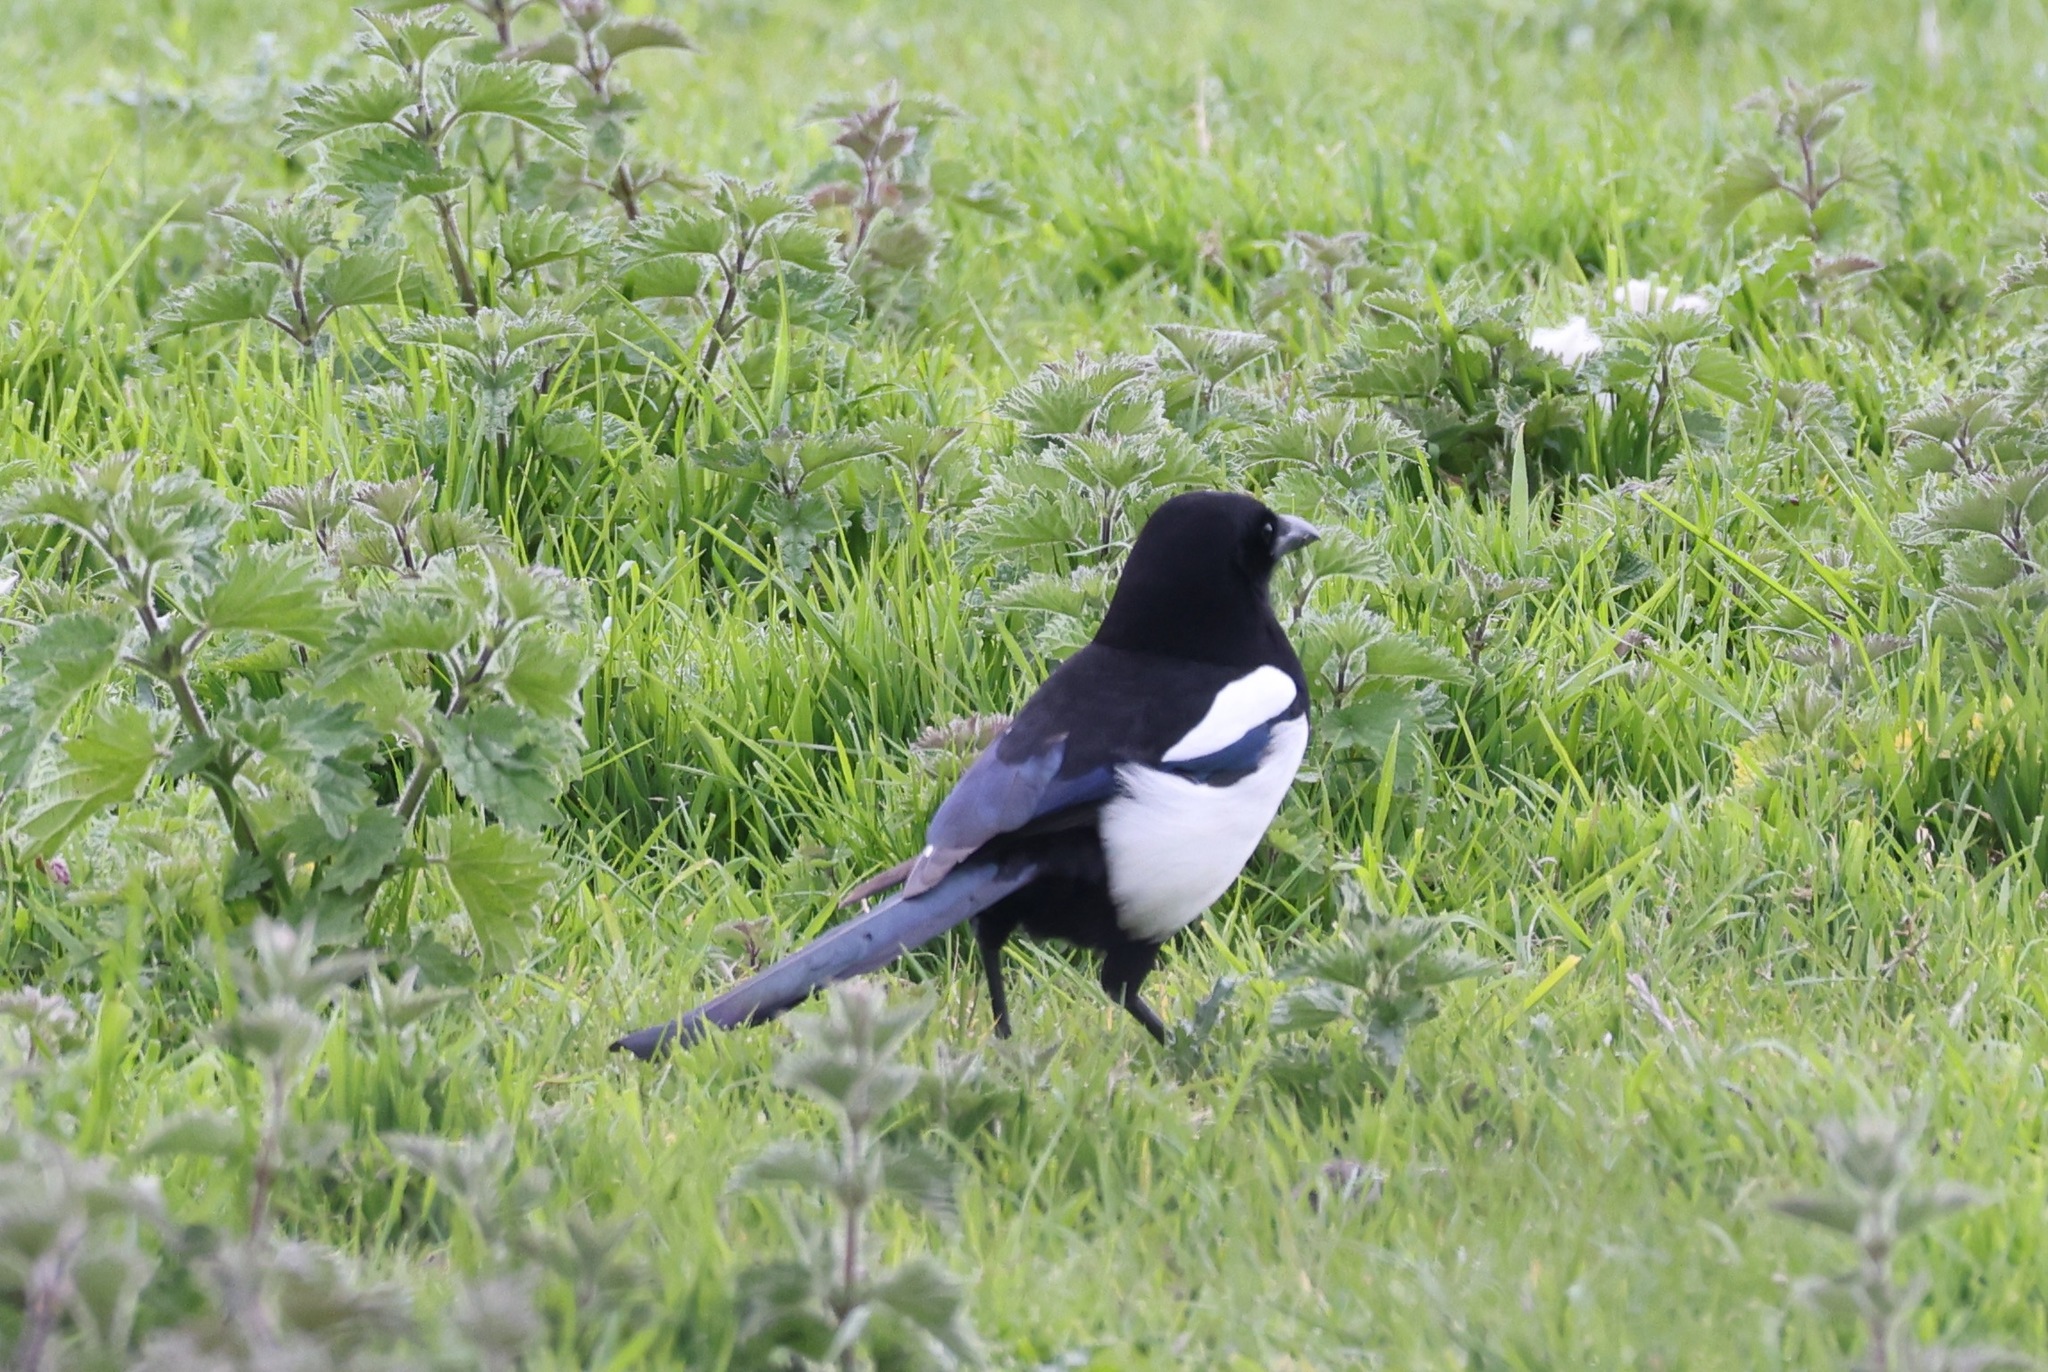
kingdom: Animalia
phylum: Chordata
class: Aves
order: Passeriformes
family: Corvidae
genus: Pica
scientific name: Pica pica
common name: Eurasian magpie
